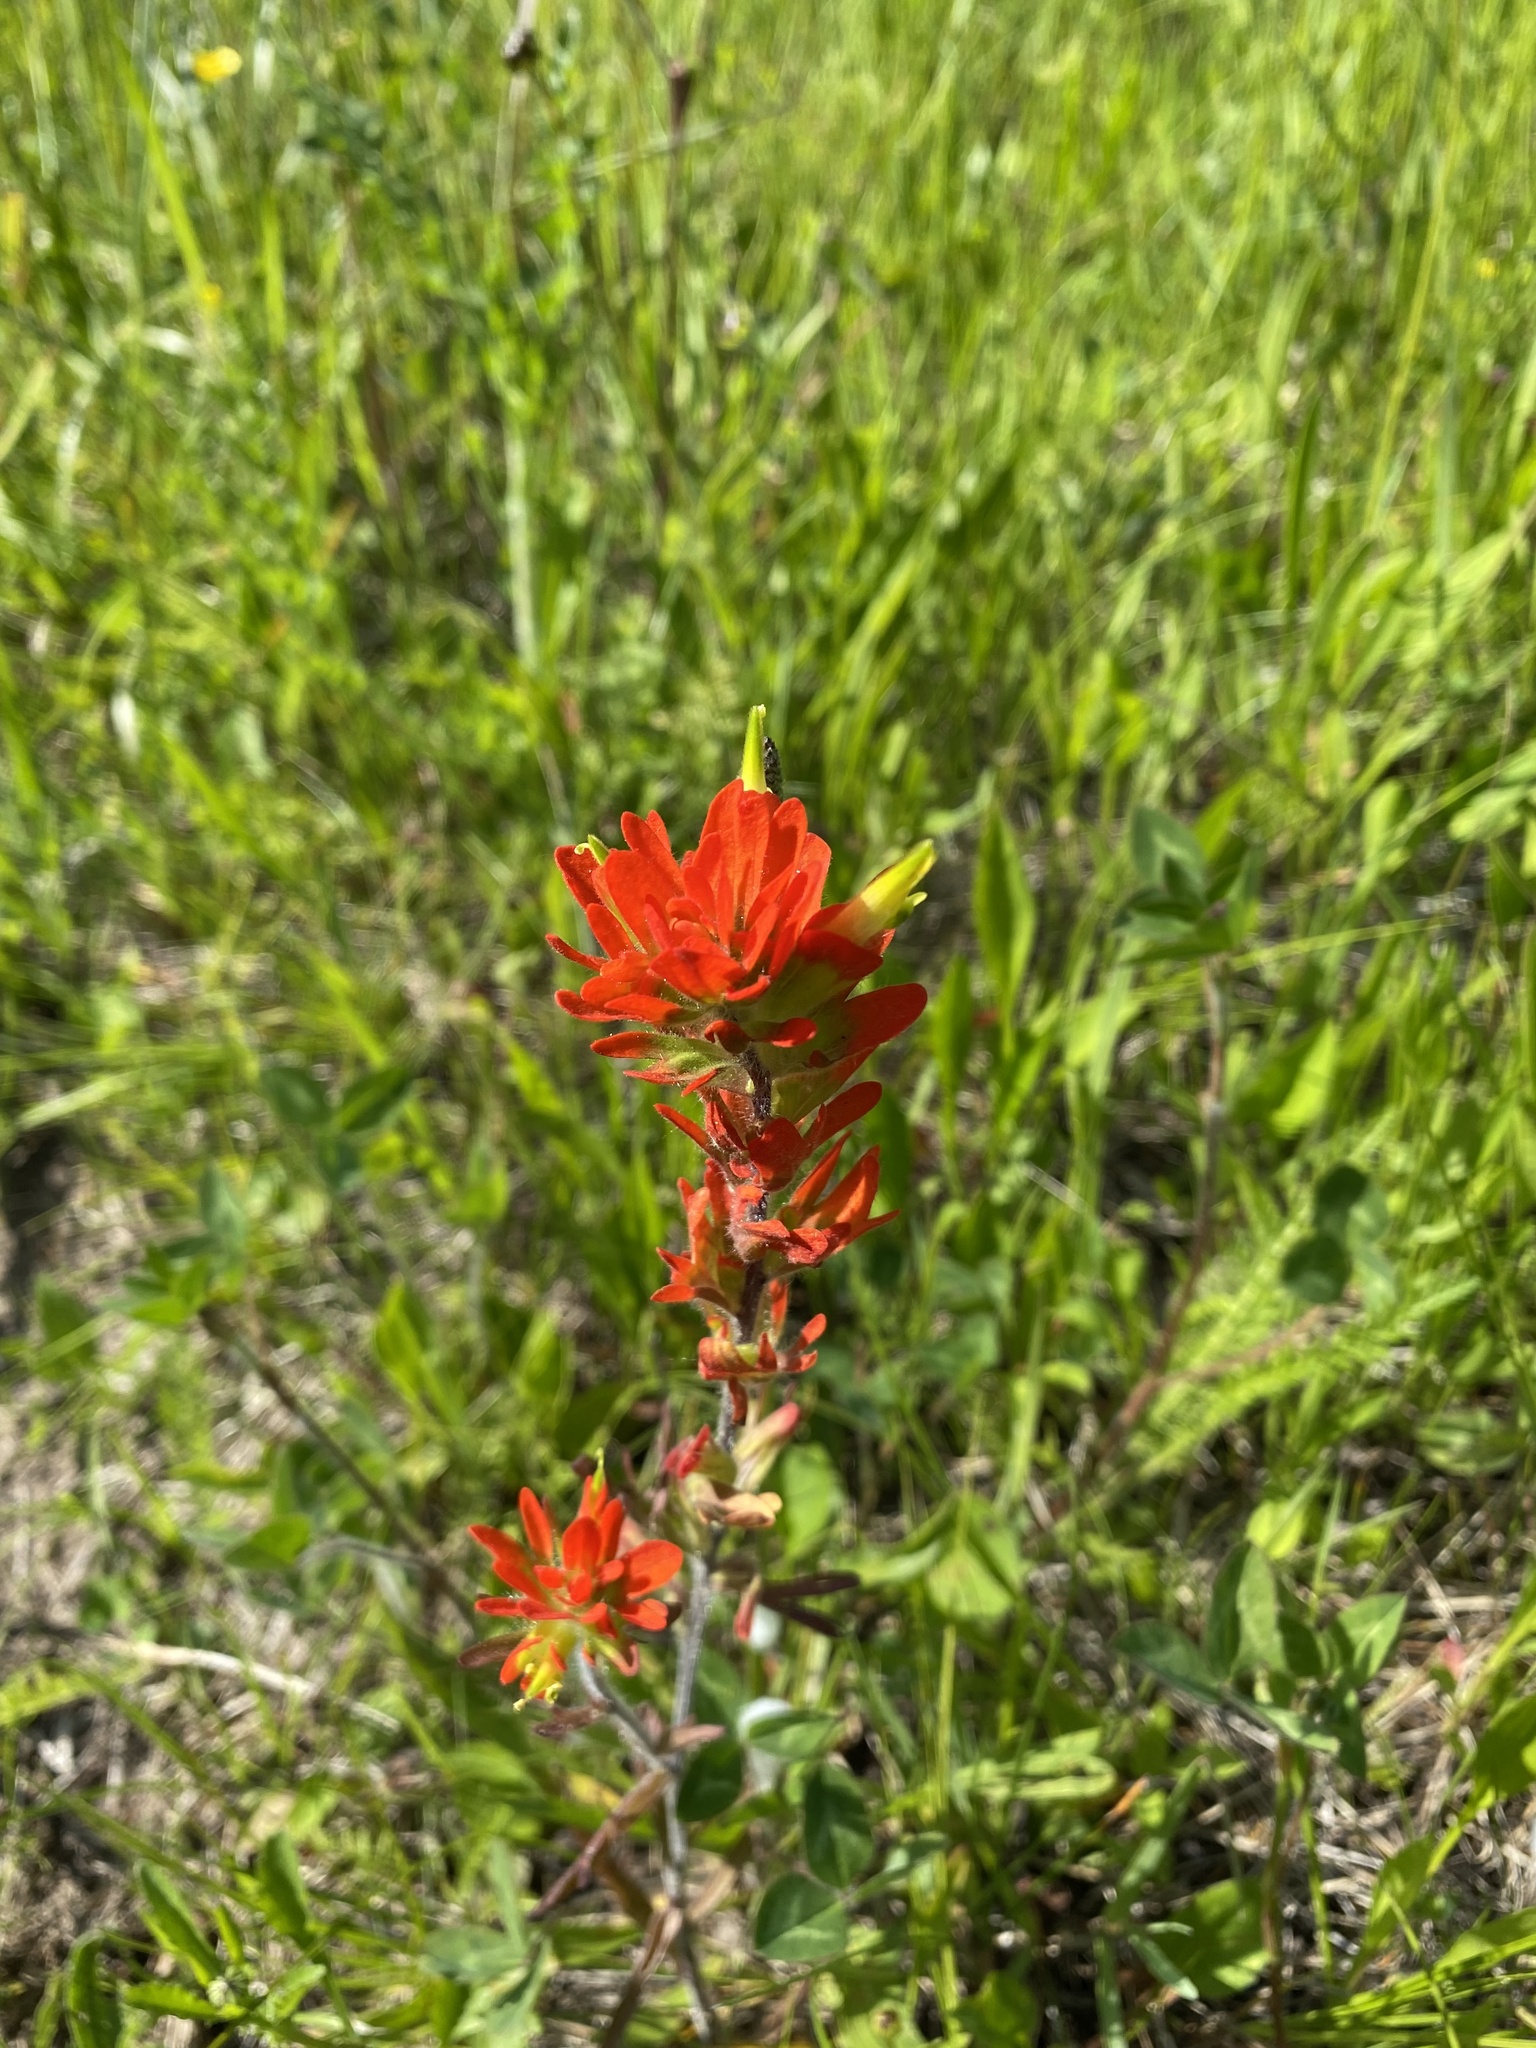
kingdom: Plantae
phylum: Tracheophyta
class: Magnoliopsida
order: Lamiales
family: Orobanchaceae
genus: Castilleja
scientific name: Castilleja coccinea
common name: Scarlet paintbrush
